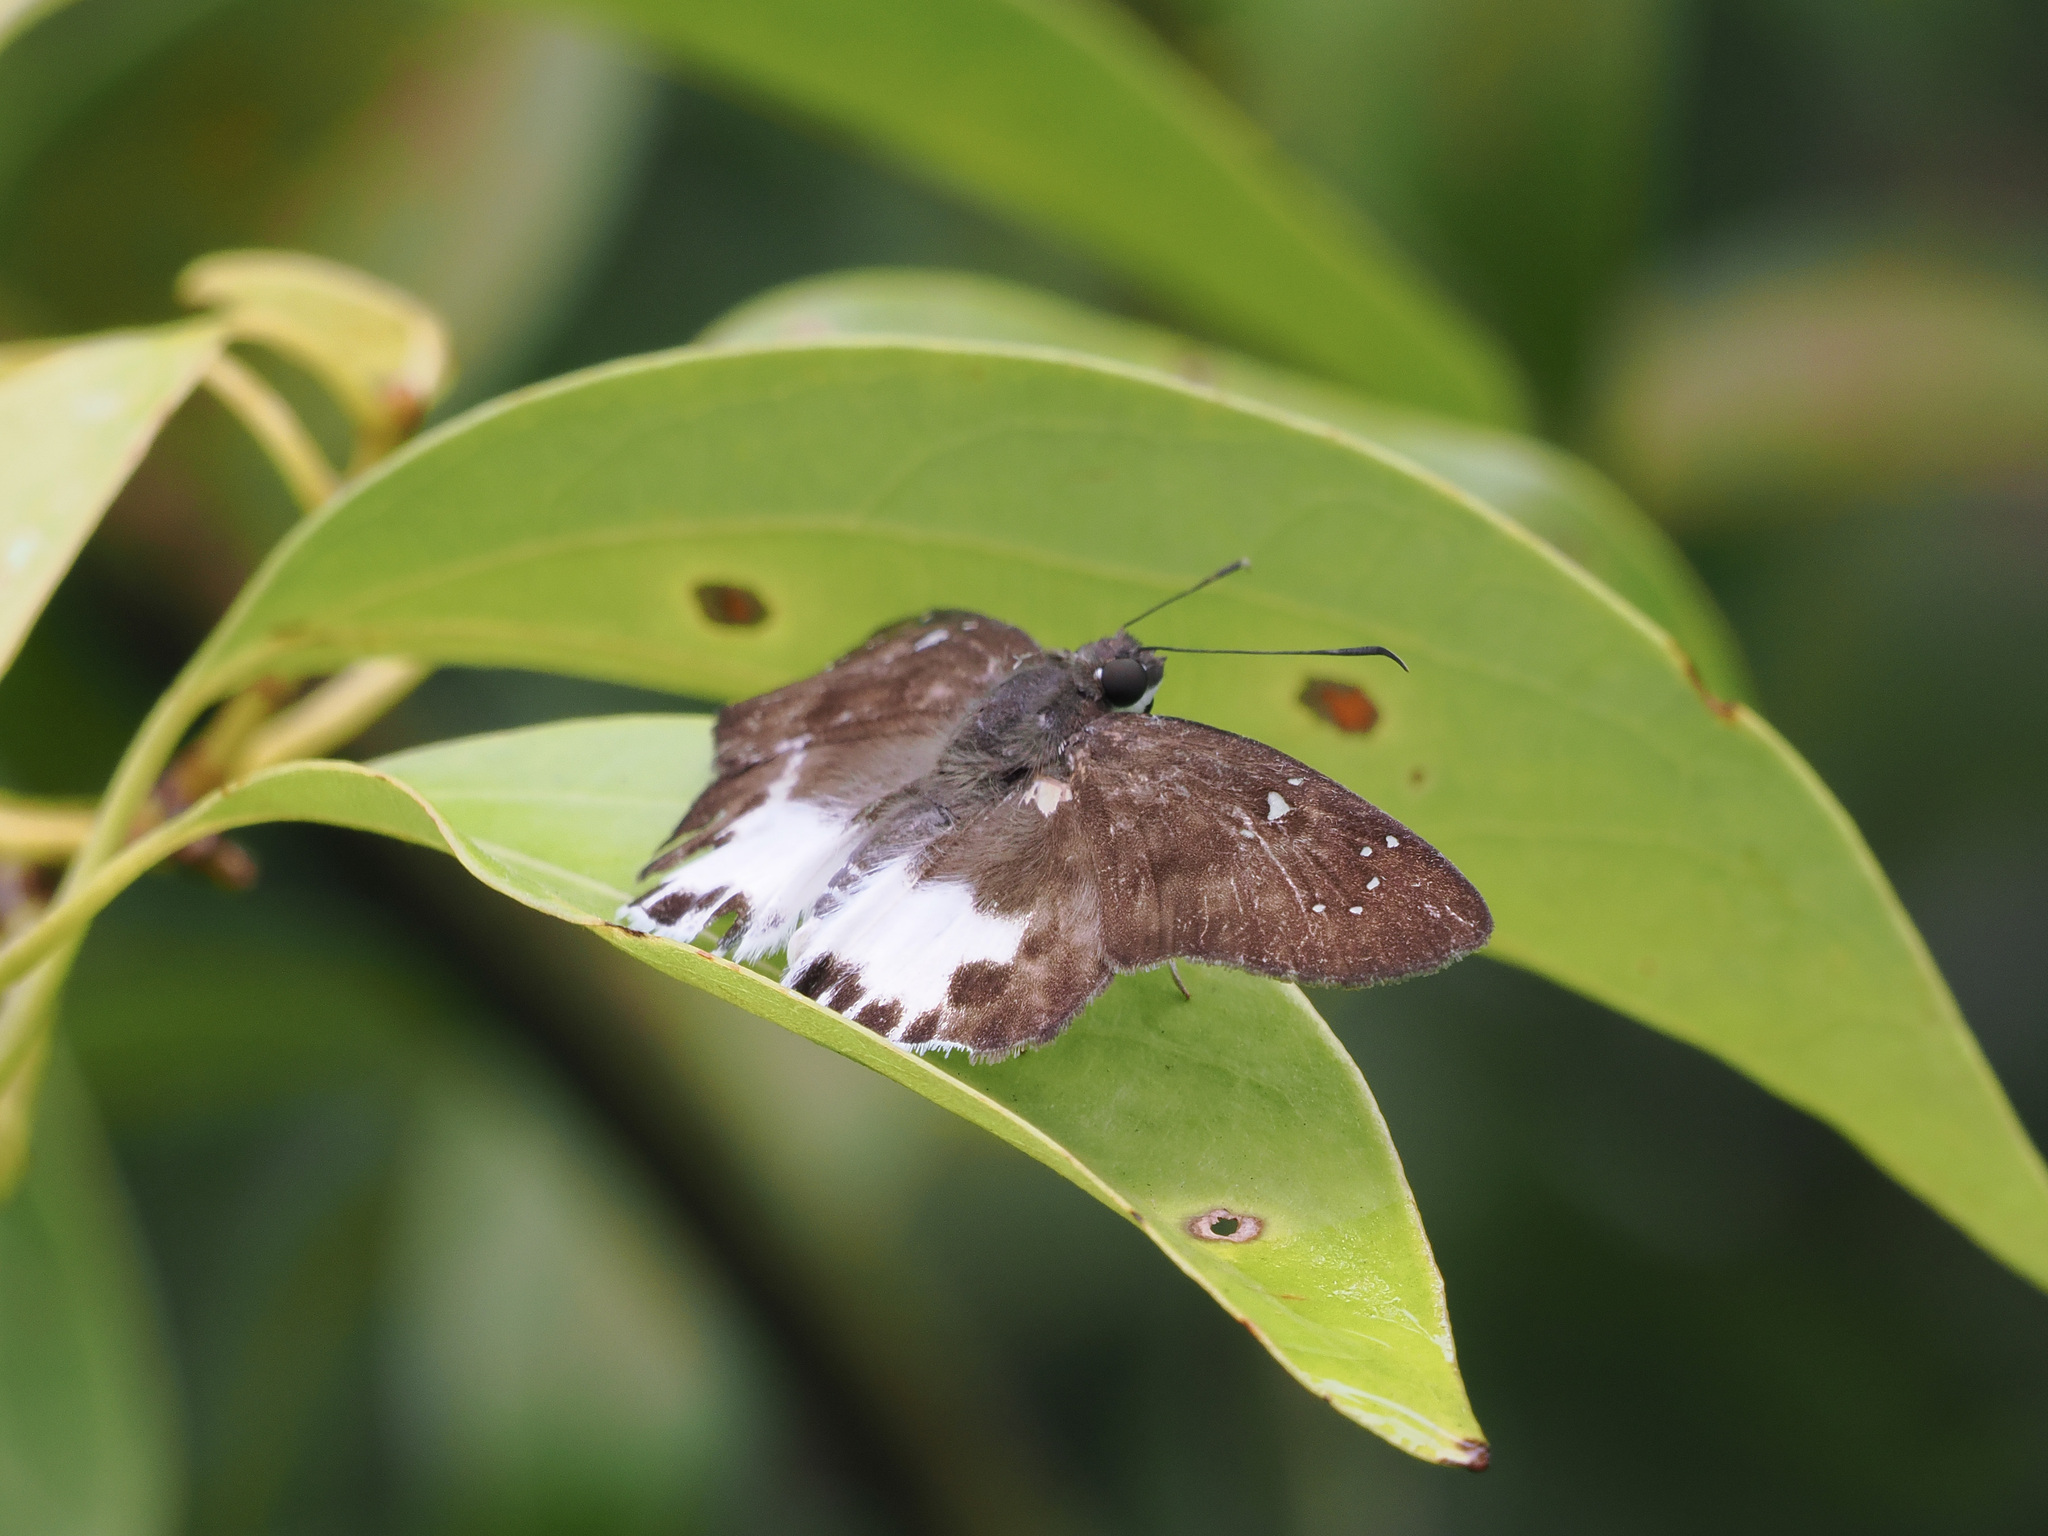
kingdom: Animalia
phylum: Arthropoda
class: Insecta
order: Lepidoptera
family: Hesperiidae
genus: Tagiades
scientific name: Tagiades litigiosa
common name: Water snow flat
